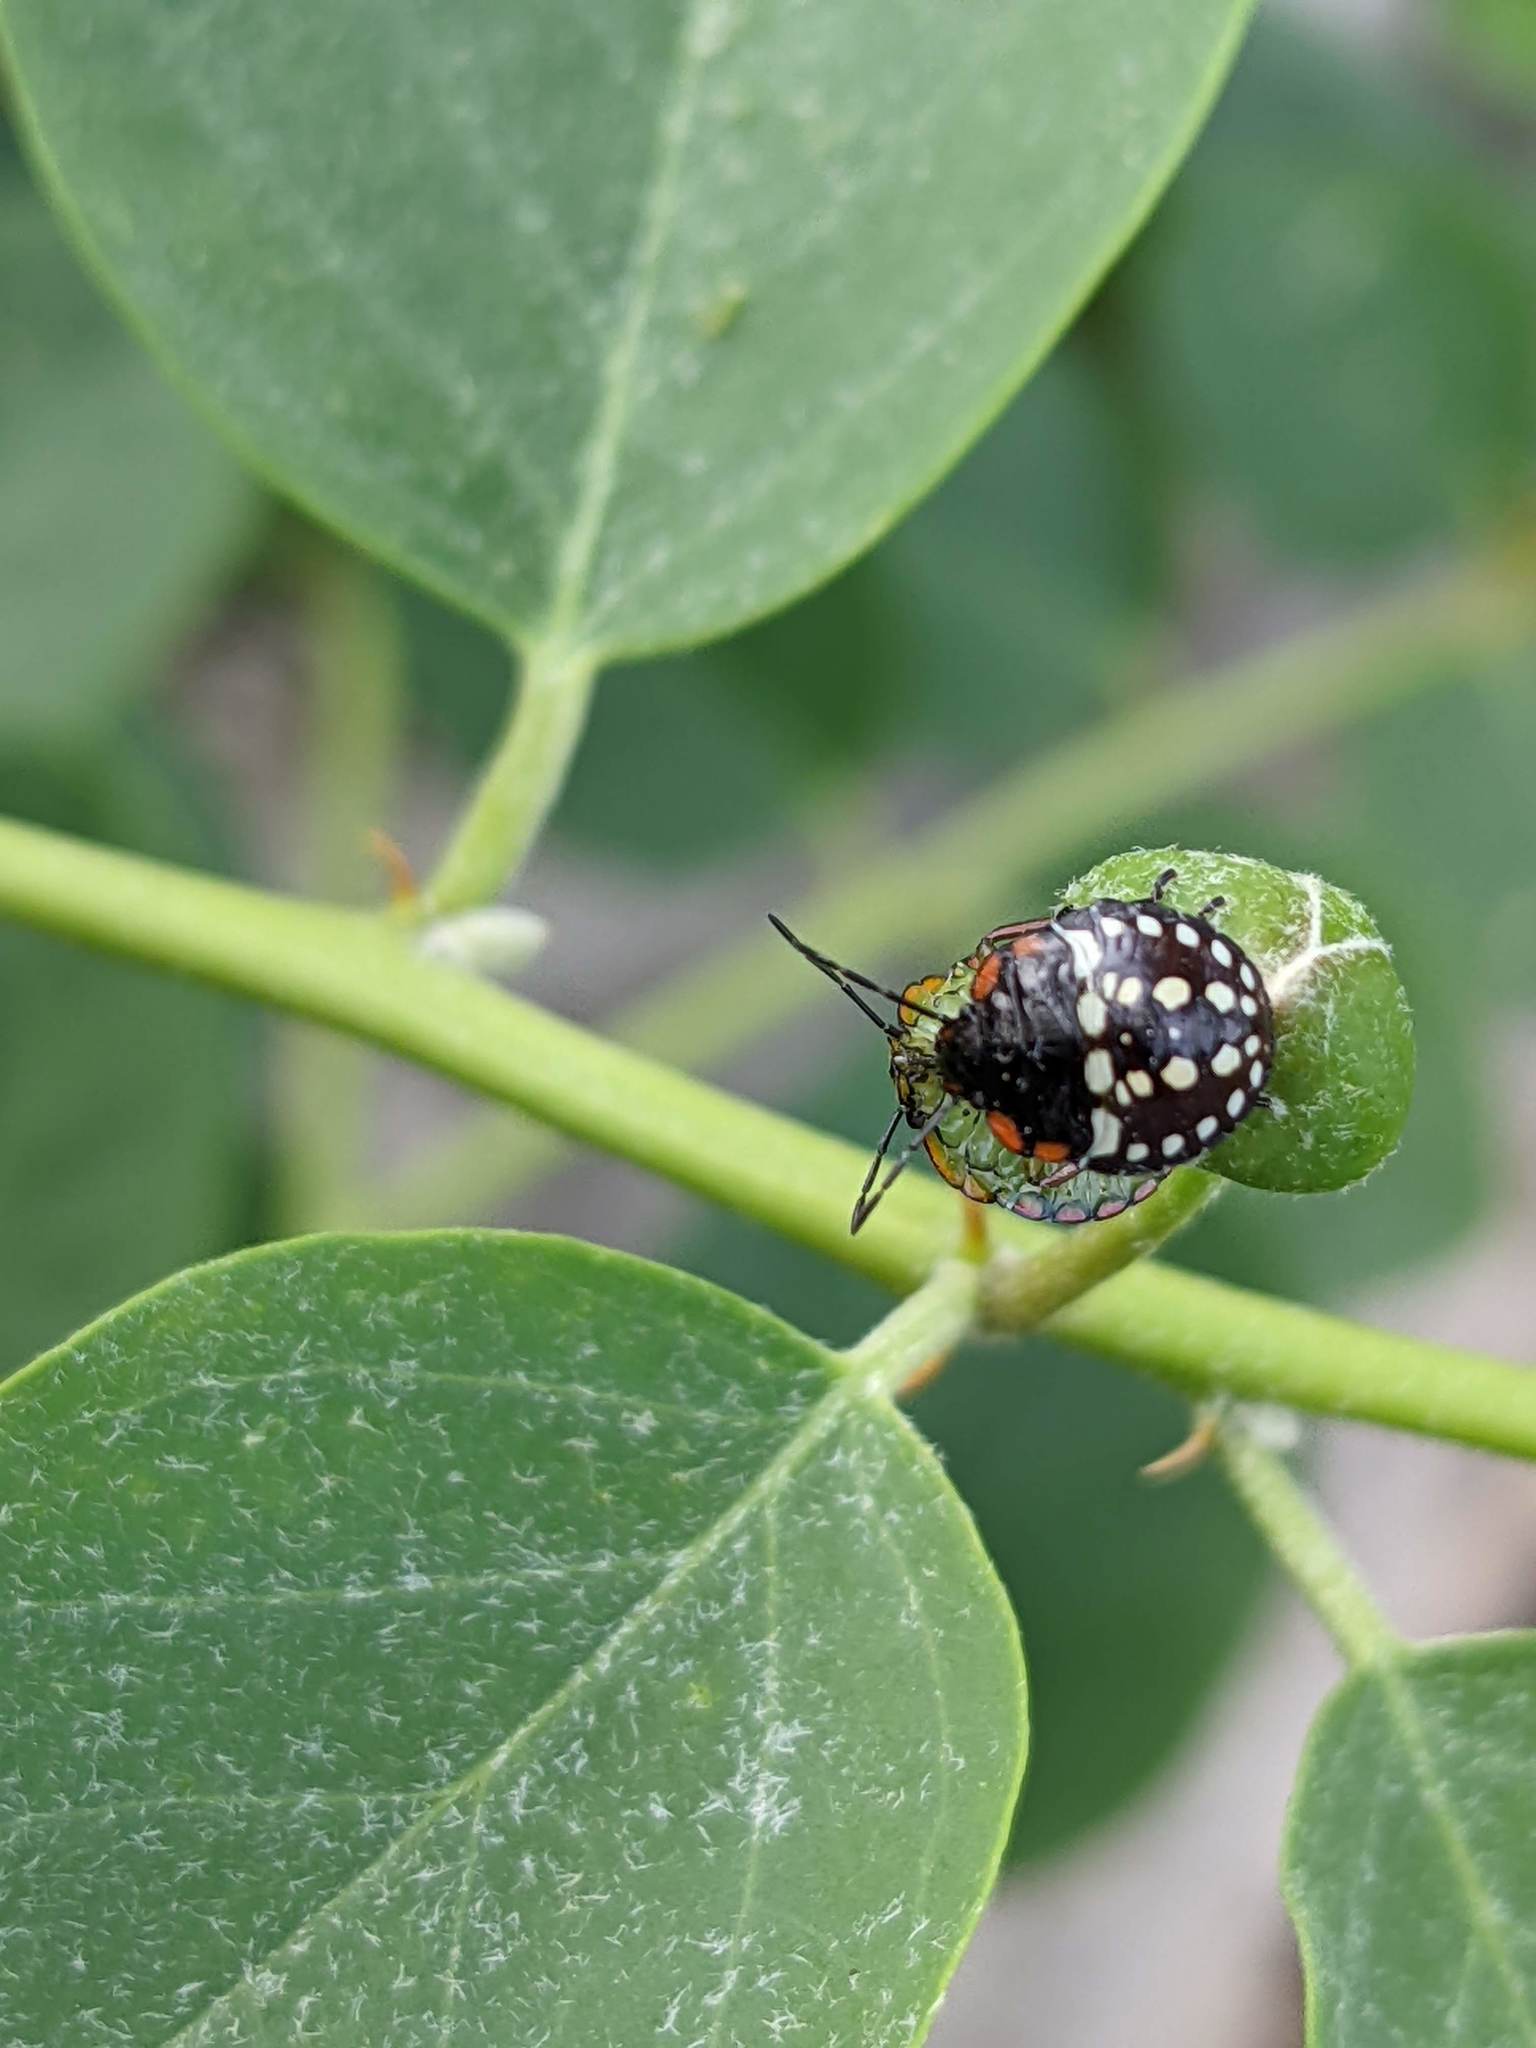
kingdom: Animalia
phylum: Arthropoda
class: Insecta
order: Hemiptera
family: Pentatomidae
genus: Nezara
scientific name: Nezara viridula
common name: Southern green stink bug
